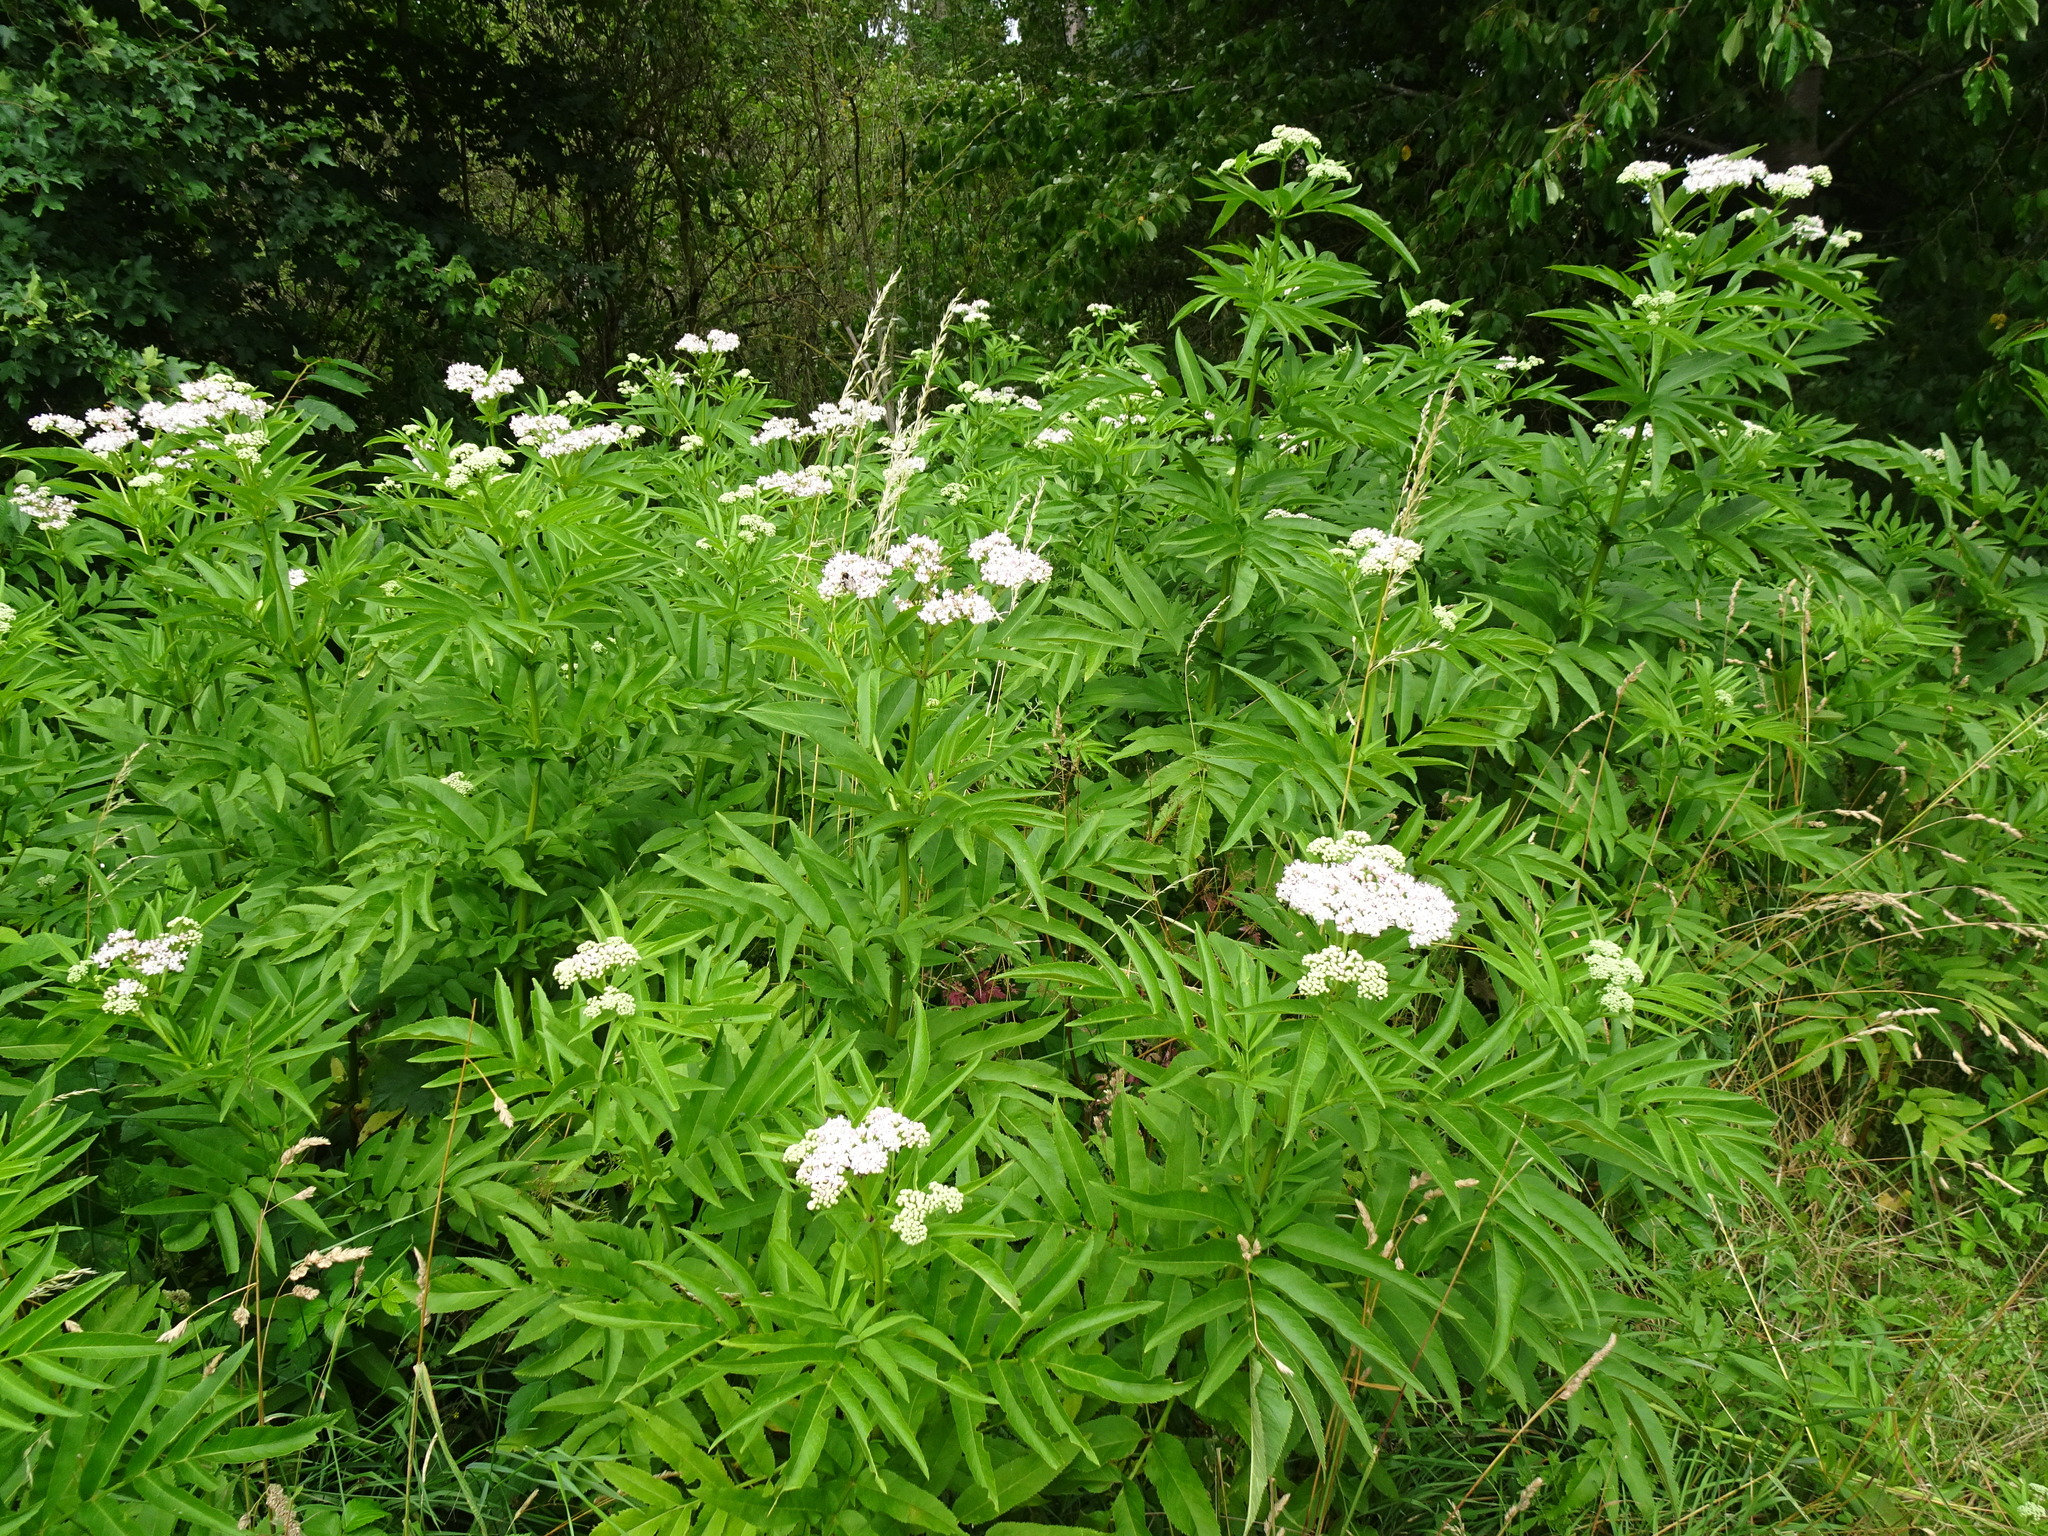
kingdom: Plantae
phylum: Tracheophyta
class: Magnoliopsida
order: Dipsacales
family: Viburnaceae
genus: Sambucus
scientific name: Sambucus ebulus
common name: Dwarf elder
